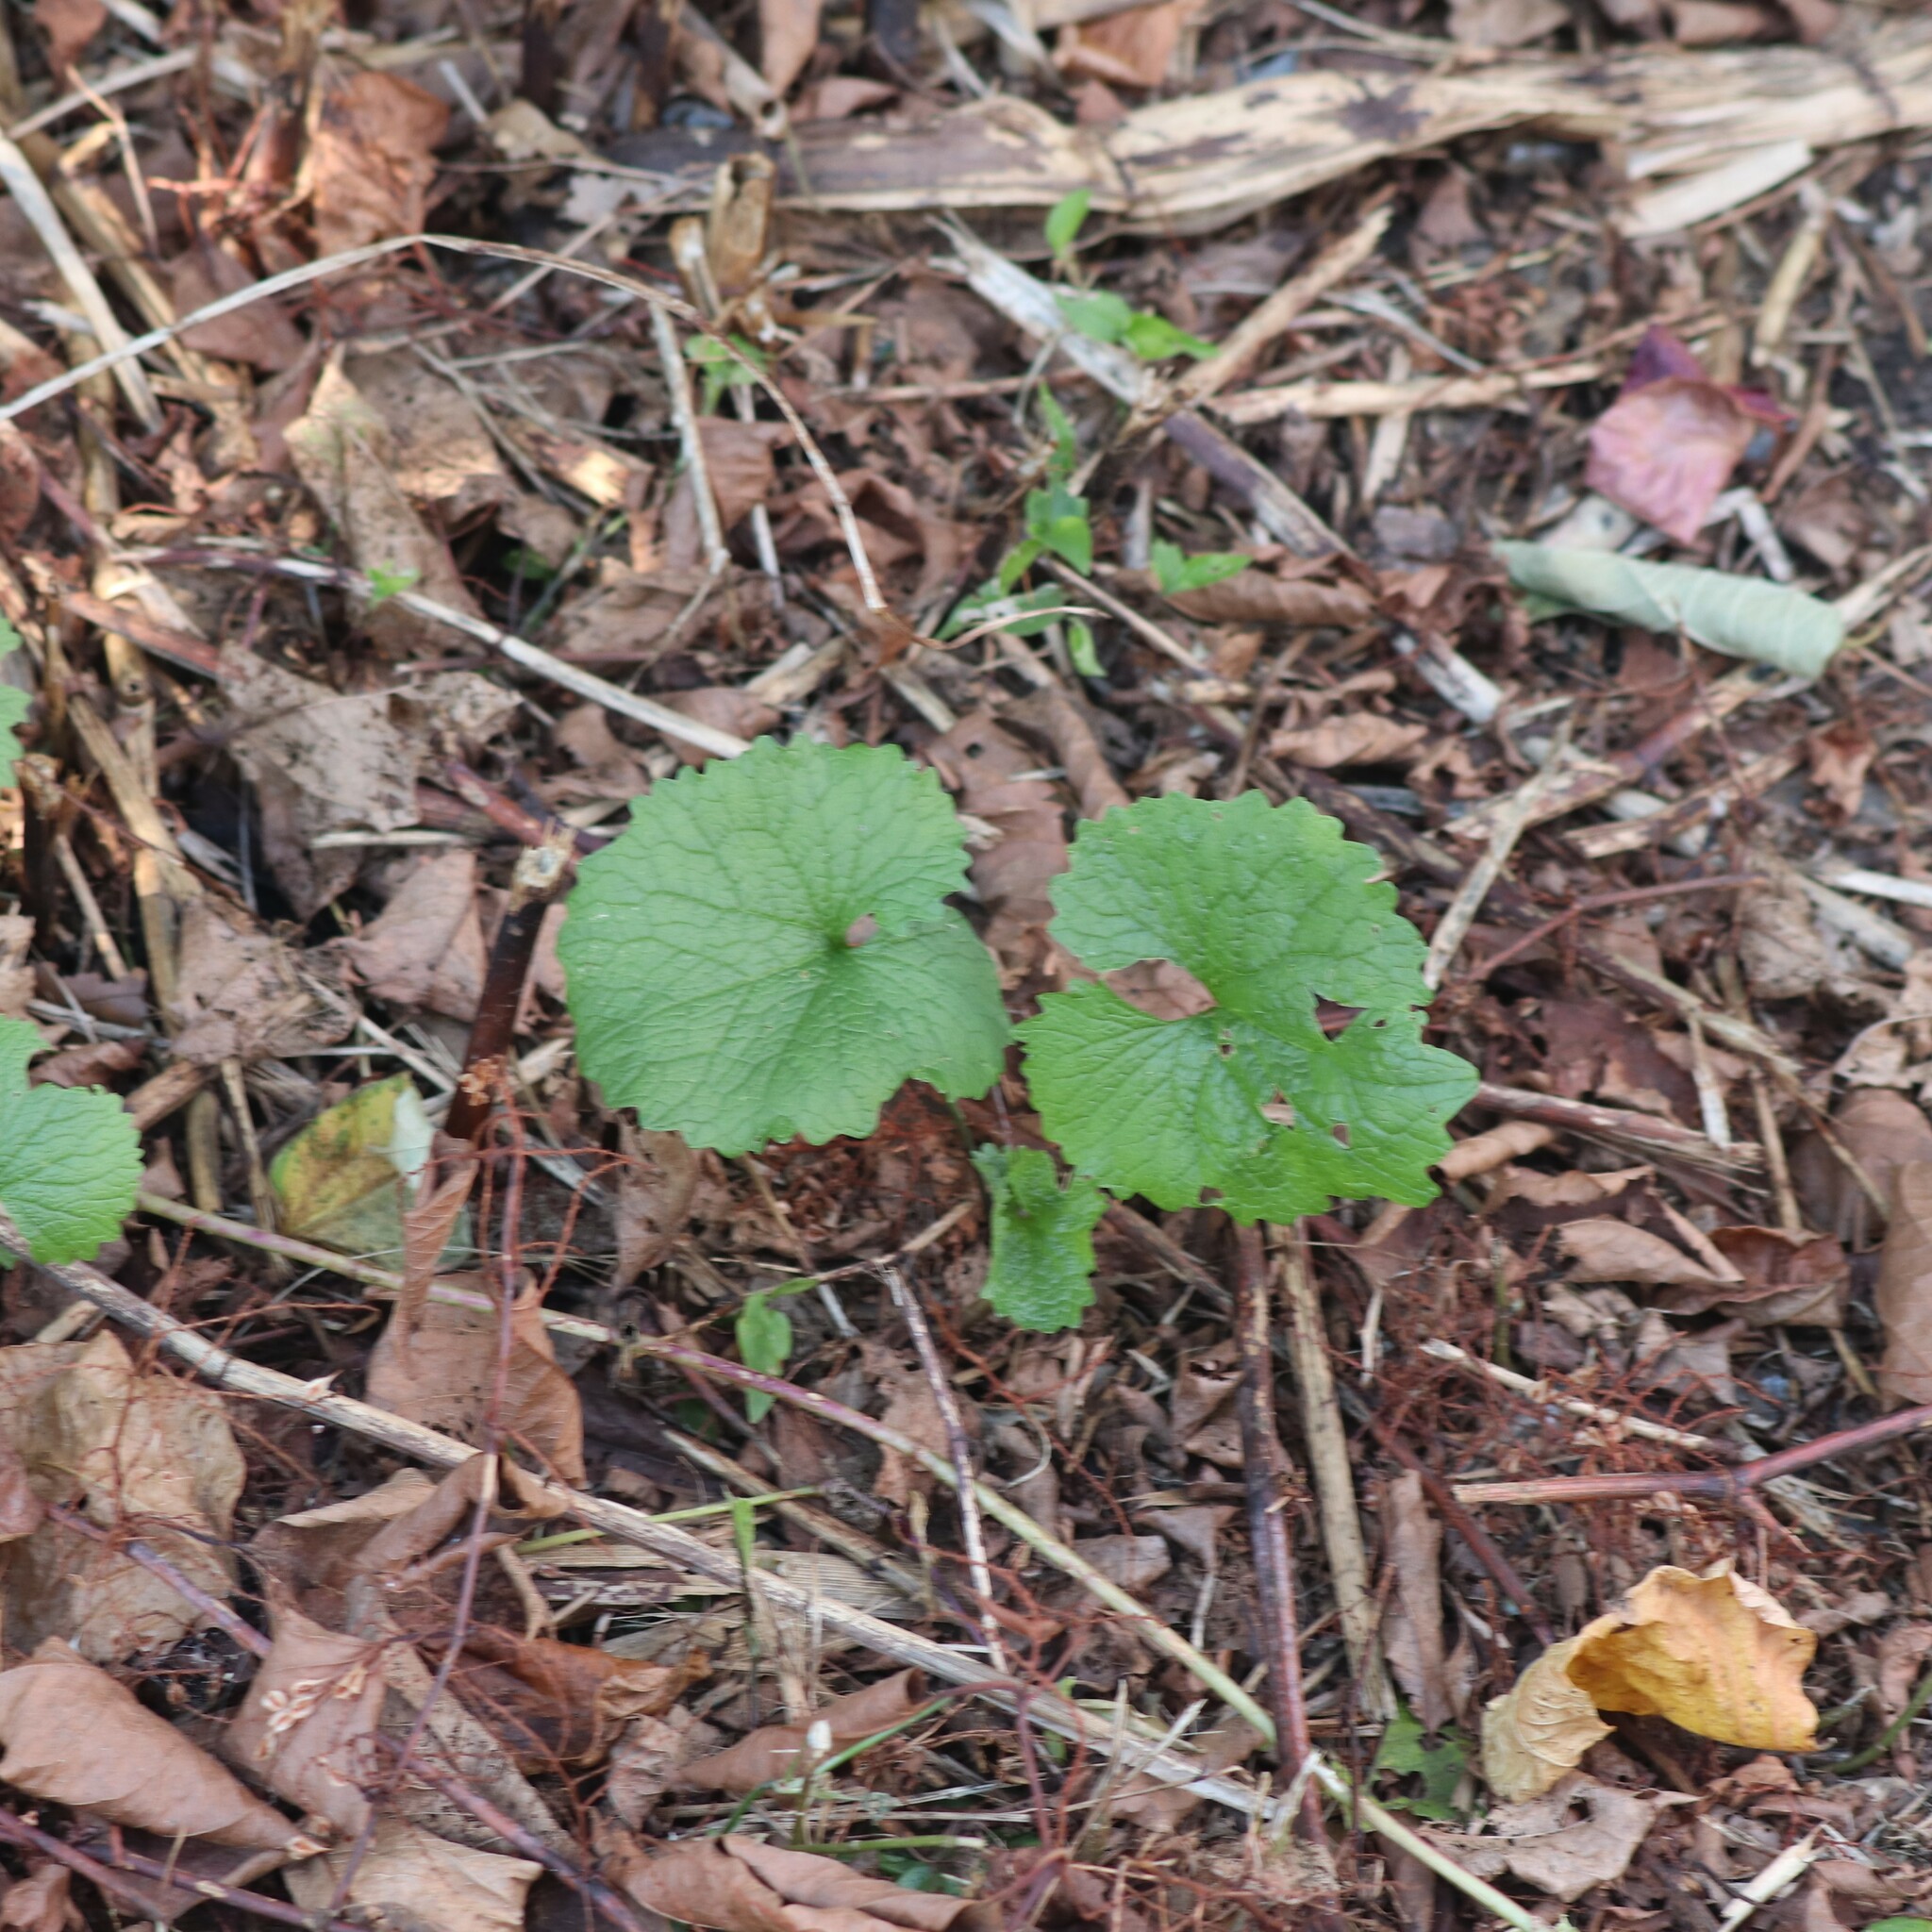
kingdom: Plantae
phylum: Tracheophyta
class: Magnoliopsida
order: Brassicales
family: Brassicaceae
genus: Alliaria
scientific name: Alliaria petiolata
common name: Garlic mustard
